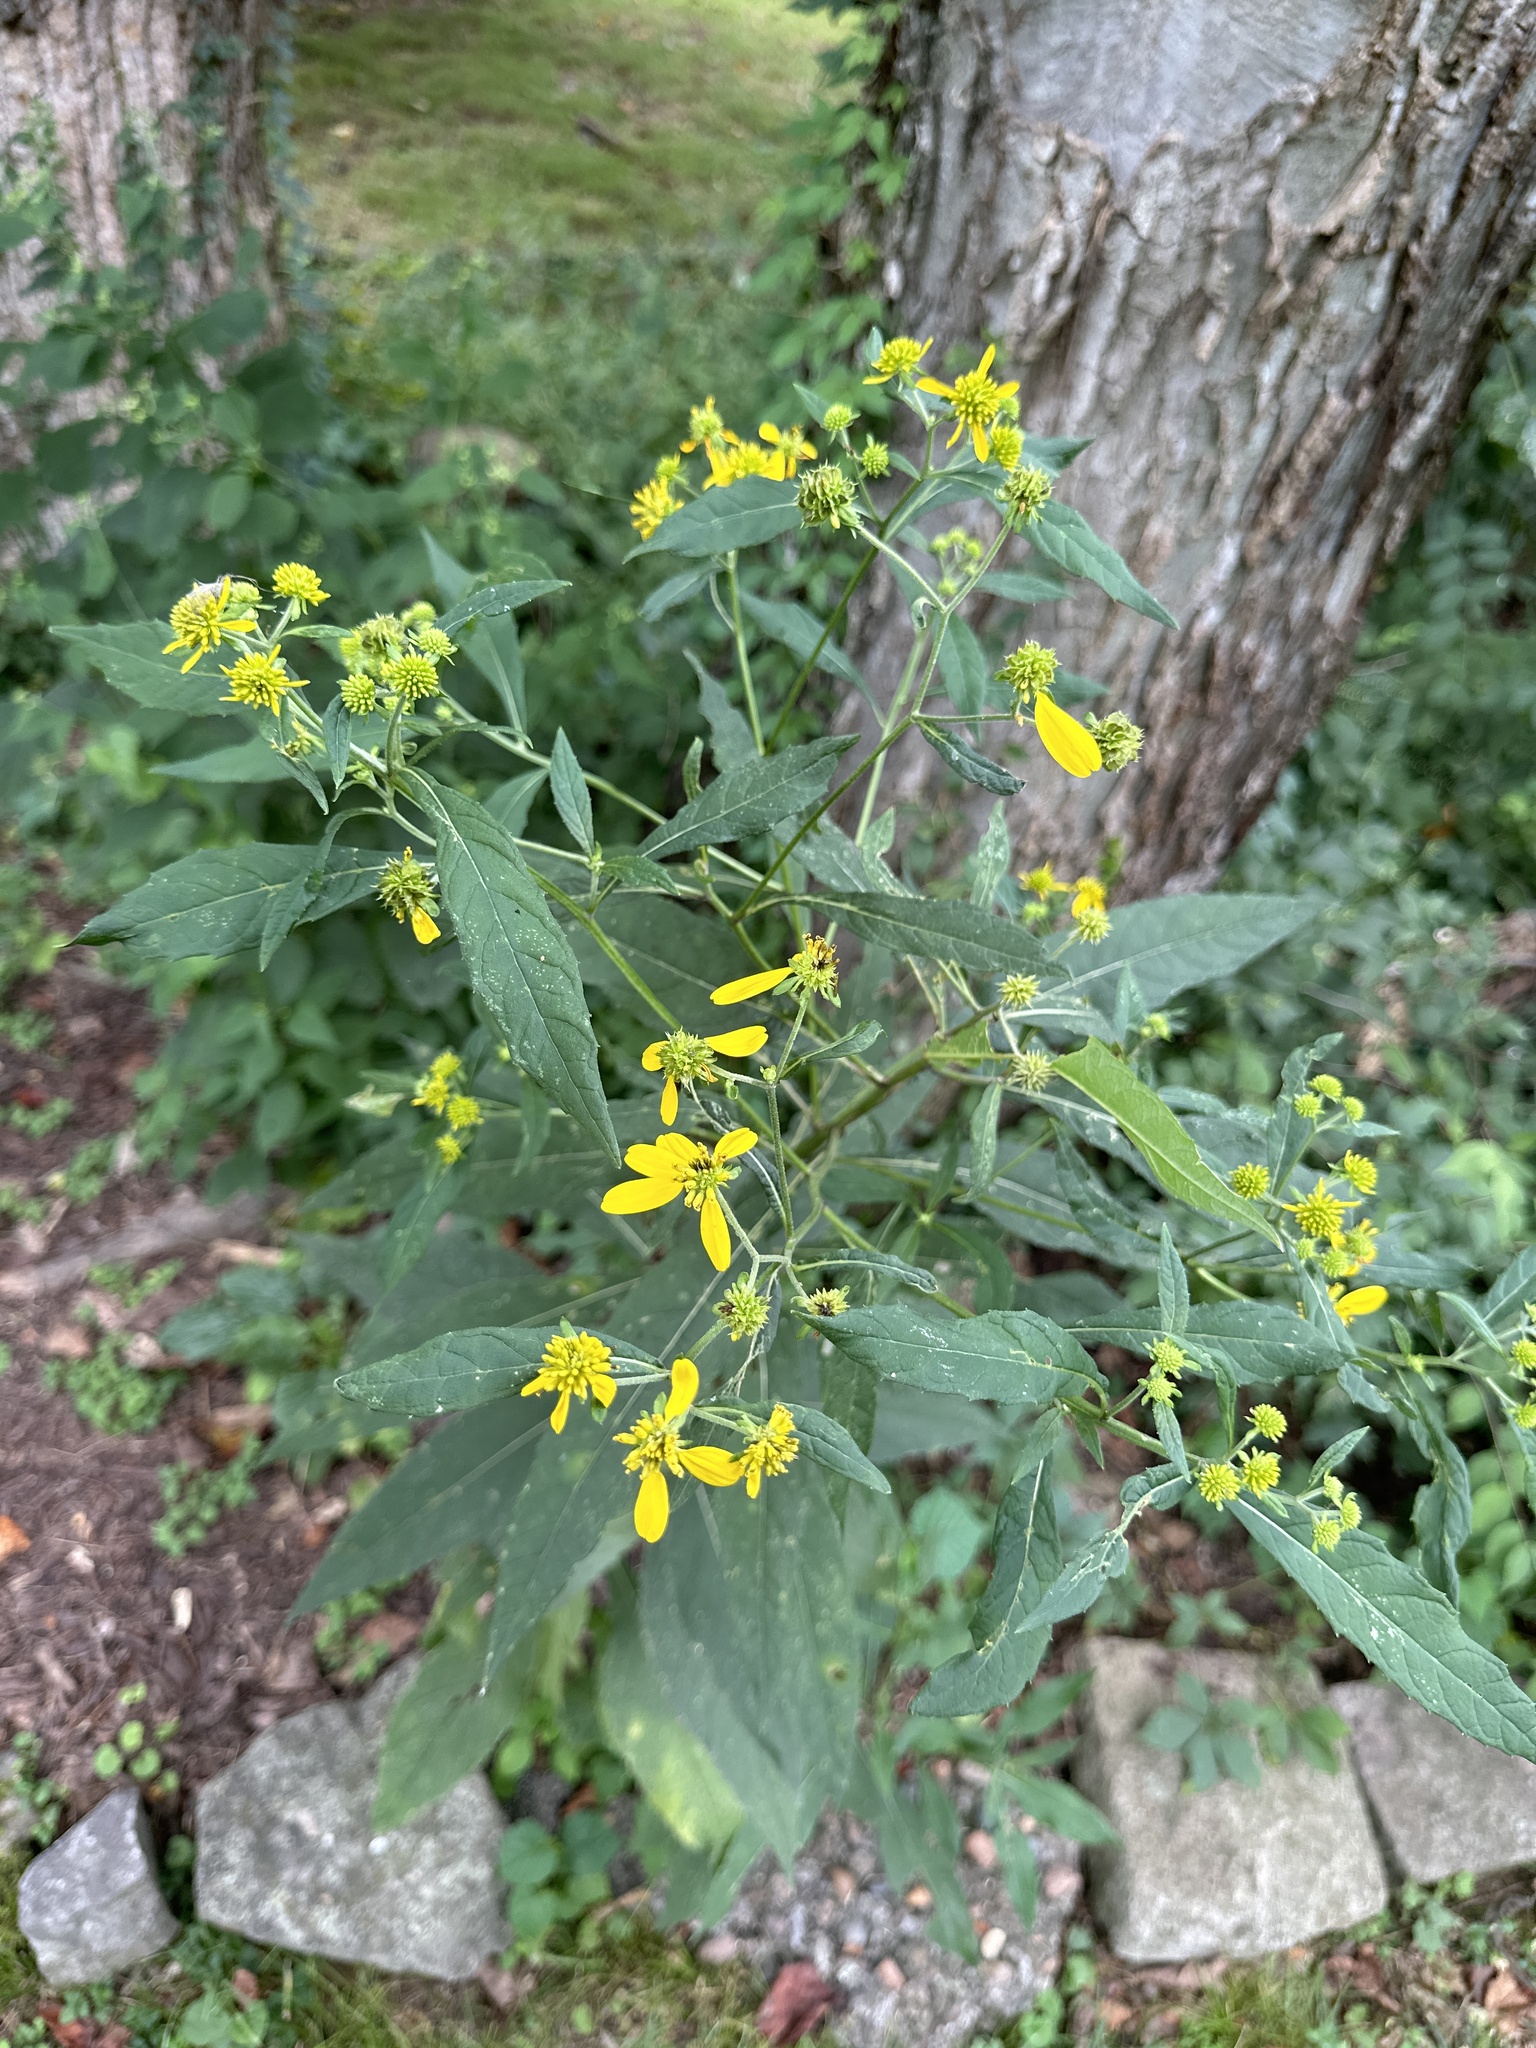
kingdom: Plantae
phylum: Tracheophyta
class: Magnoliopsida
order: Asterales
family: Asteraceae
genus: Verbesina
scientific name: Verbesina alternifolia
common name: Wingstem
